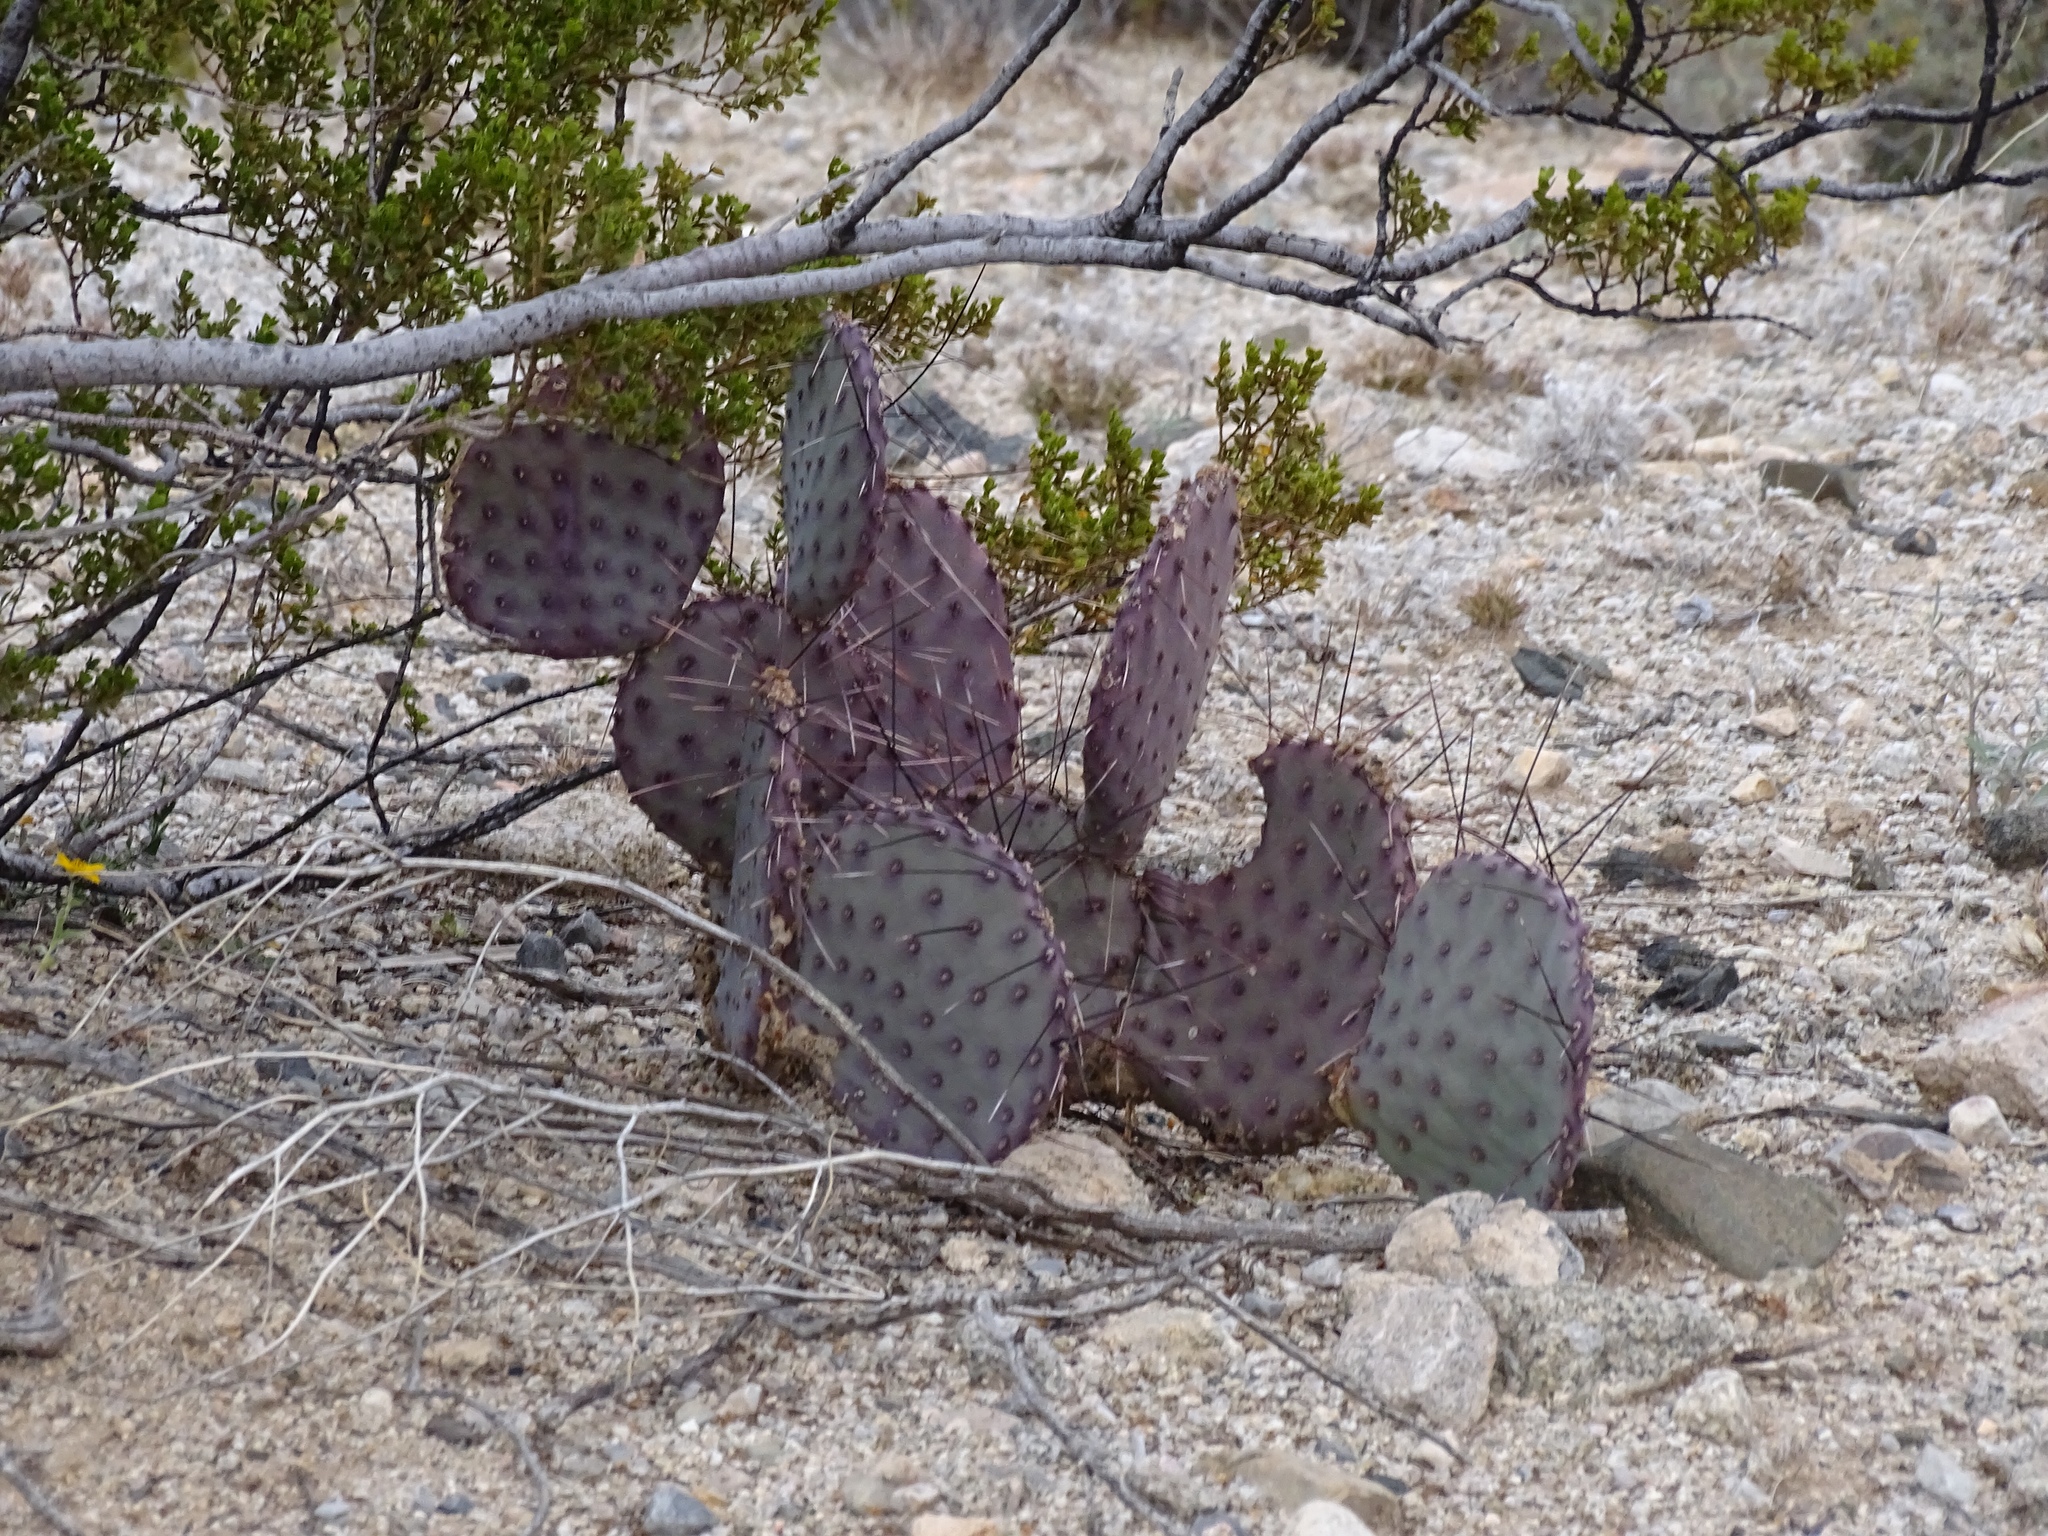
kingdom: Plantae
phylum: Tracheophyta
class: Magnoliopsida
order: Caryophyllales
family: Cactaceae
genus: Opuntia
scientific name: Opuntia macrocentra
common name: Purple prickly-pear
